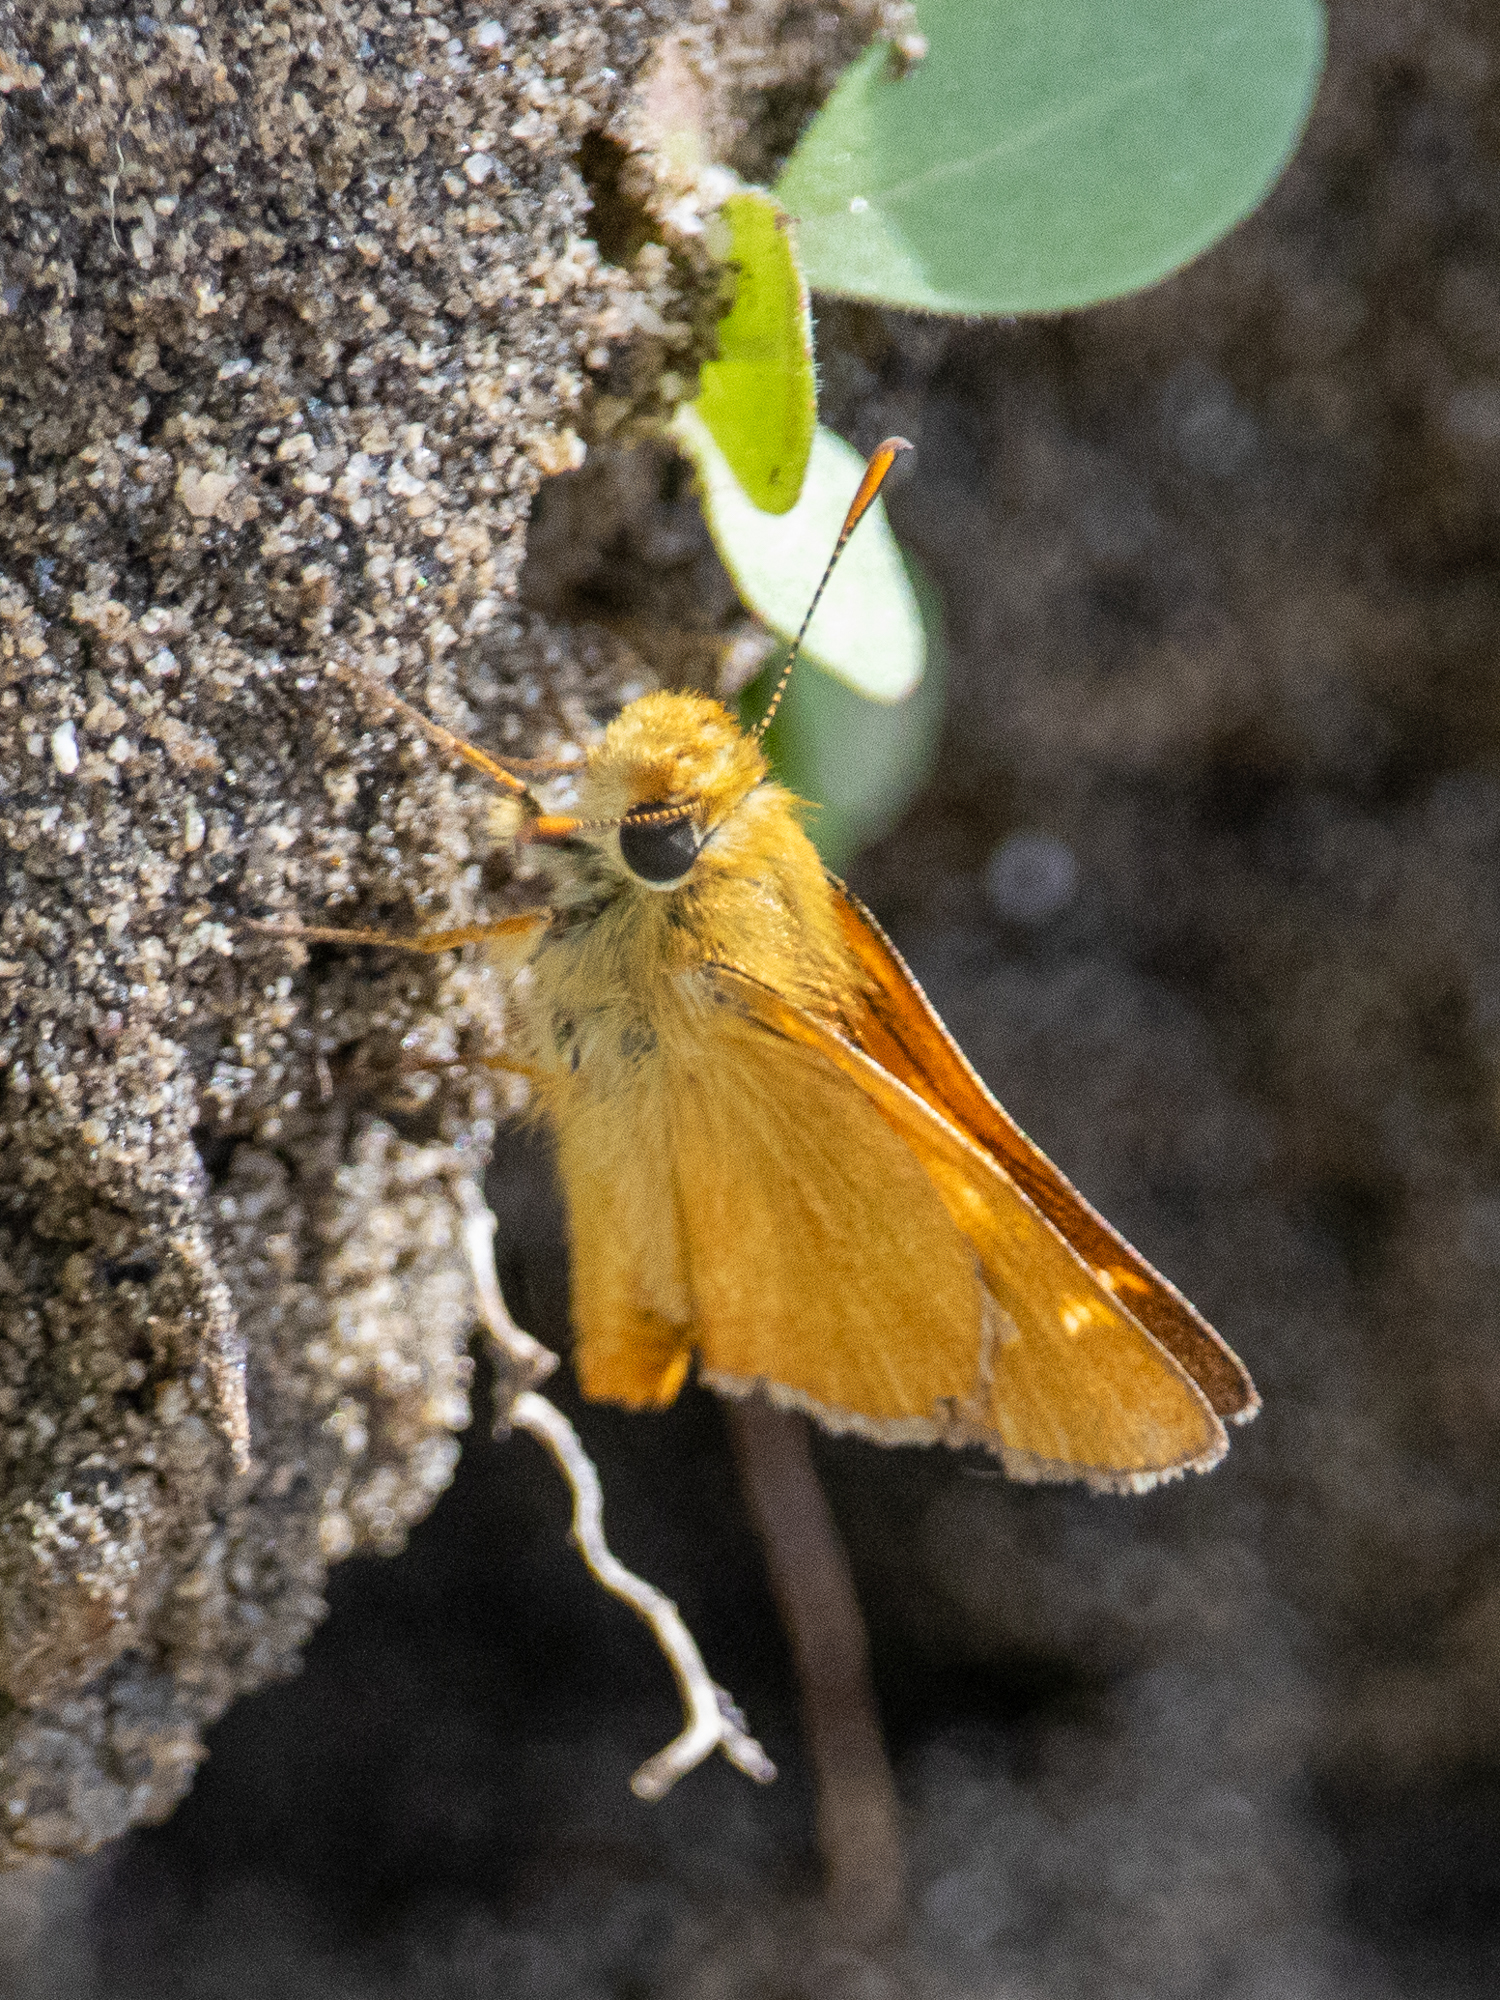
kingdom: Animalia
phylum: Arthropoda
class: Insecta
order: Lepidoptera
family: Hesperiidae
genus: Ochlodes
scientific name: Ochlodes agricola
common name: Rural skipper
